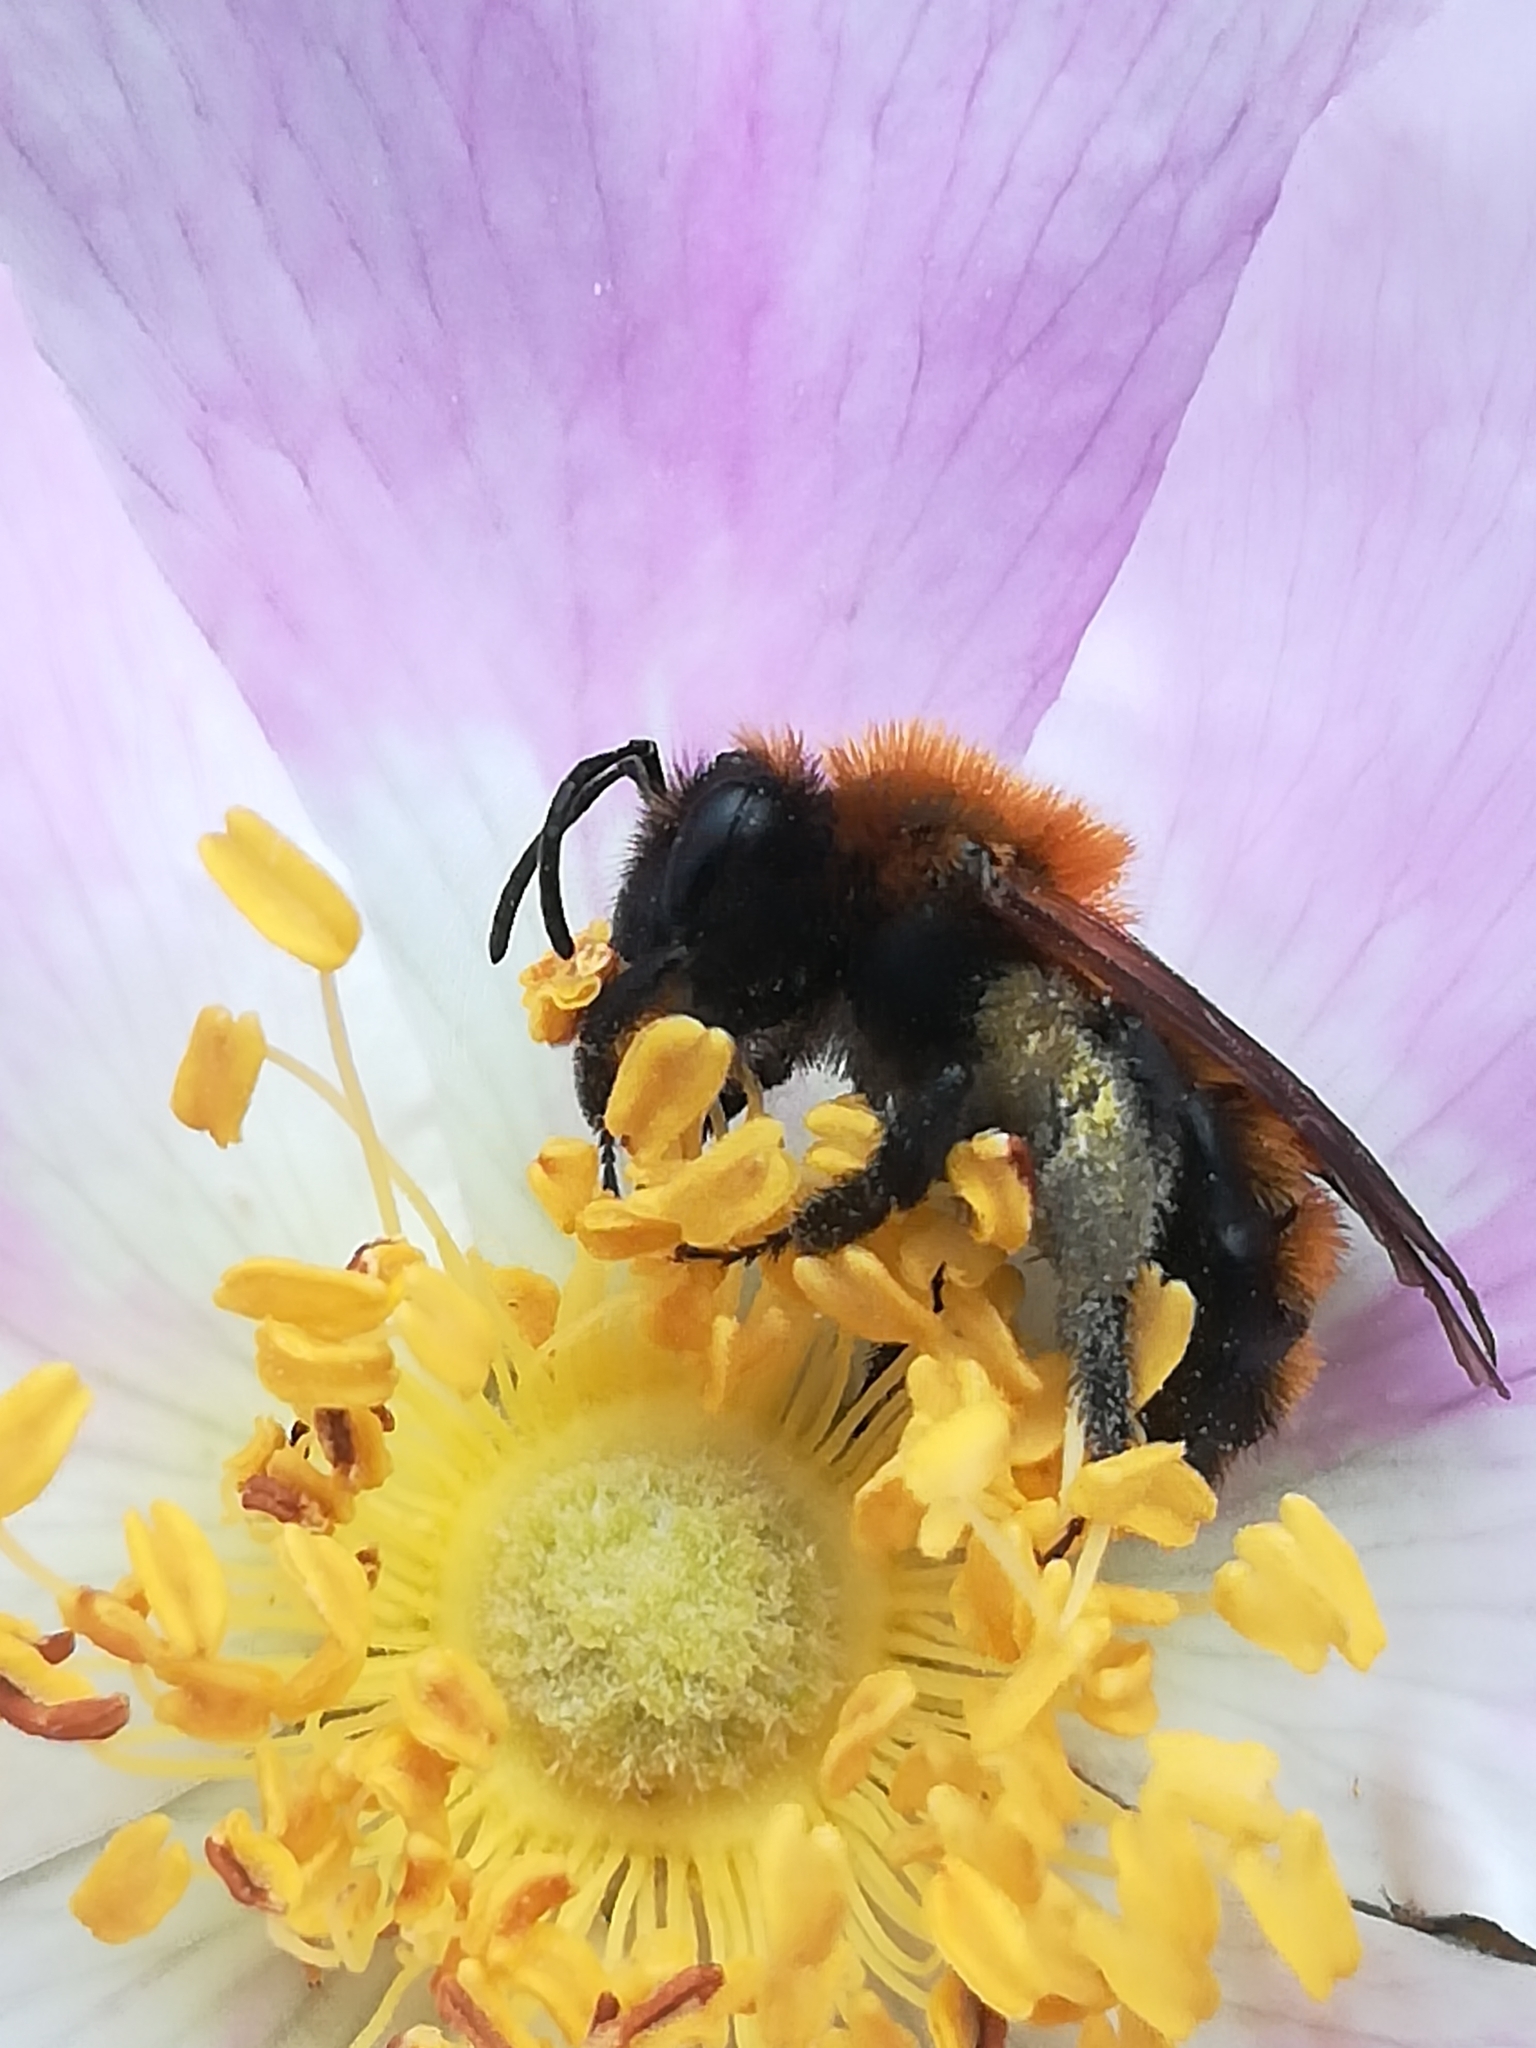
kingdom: Animalia
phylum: Arthropoda
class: Insecta
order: Hymenoptera
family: Andrenidae
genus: Andrena
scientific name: Andrena milwaukeensis
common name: Milwaukee mining bee
